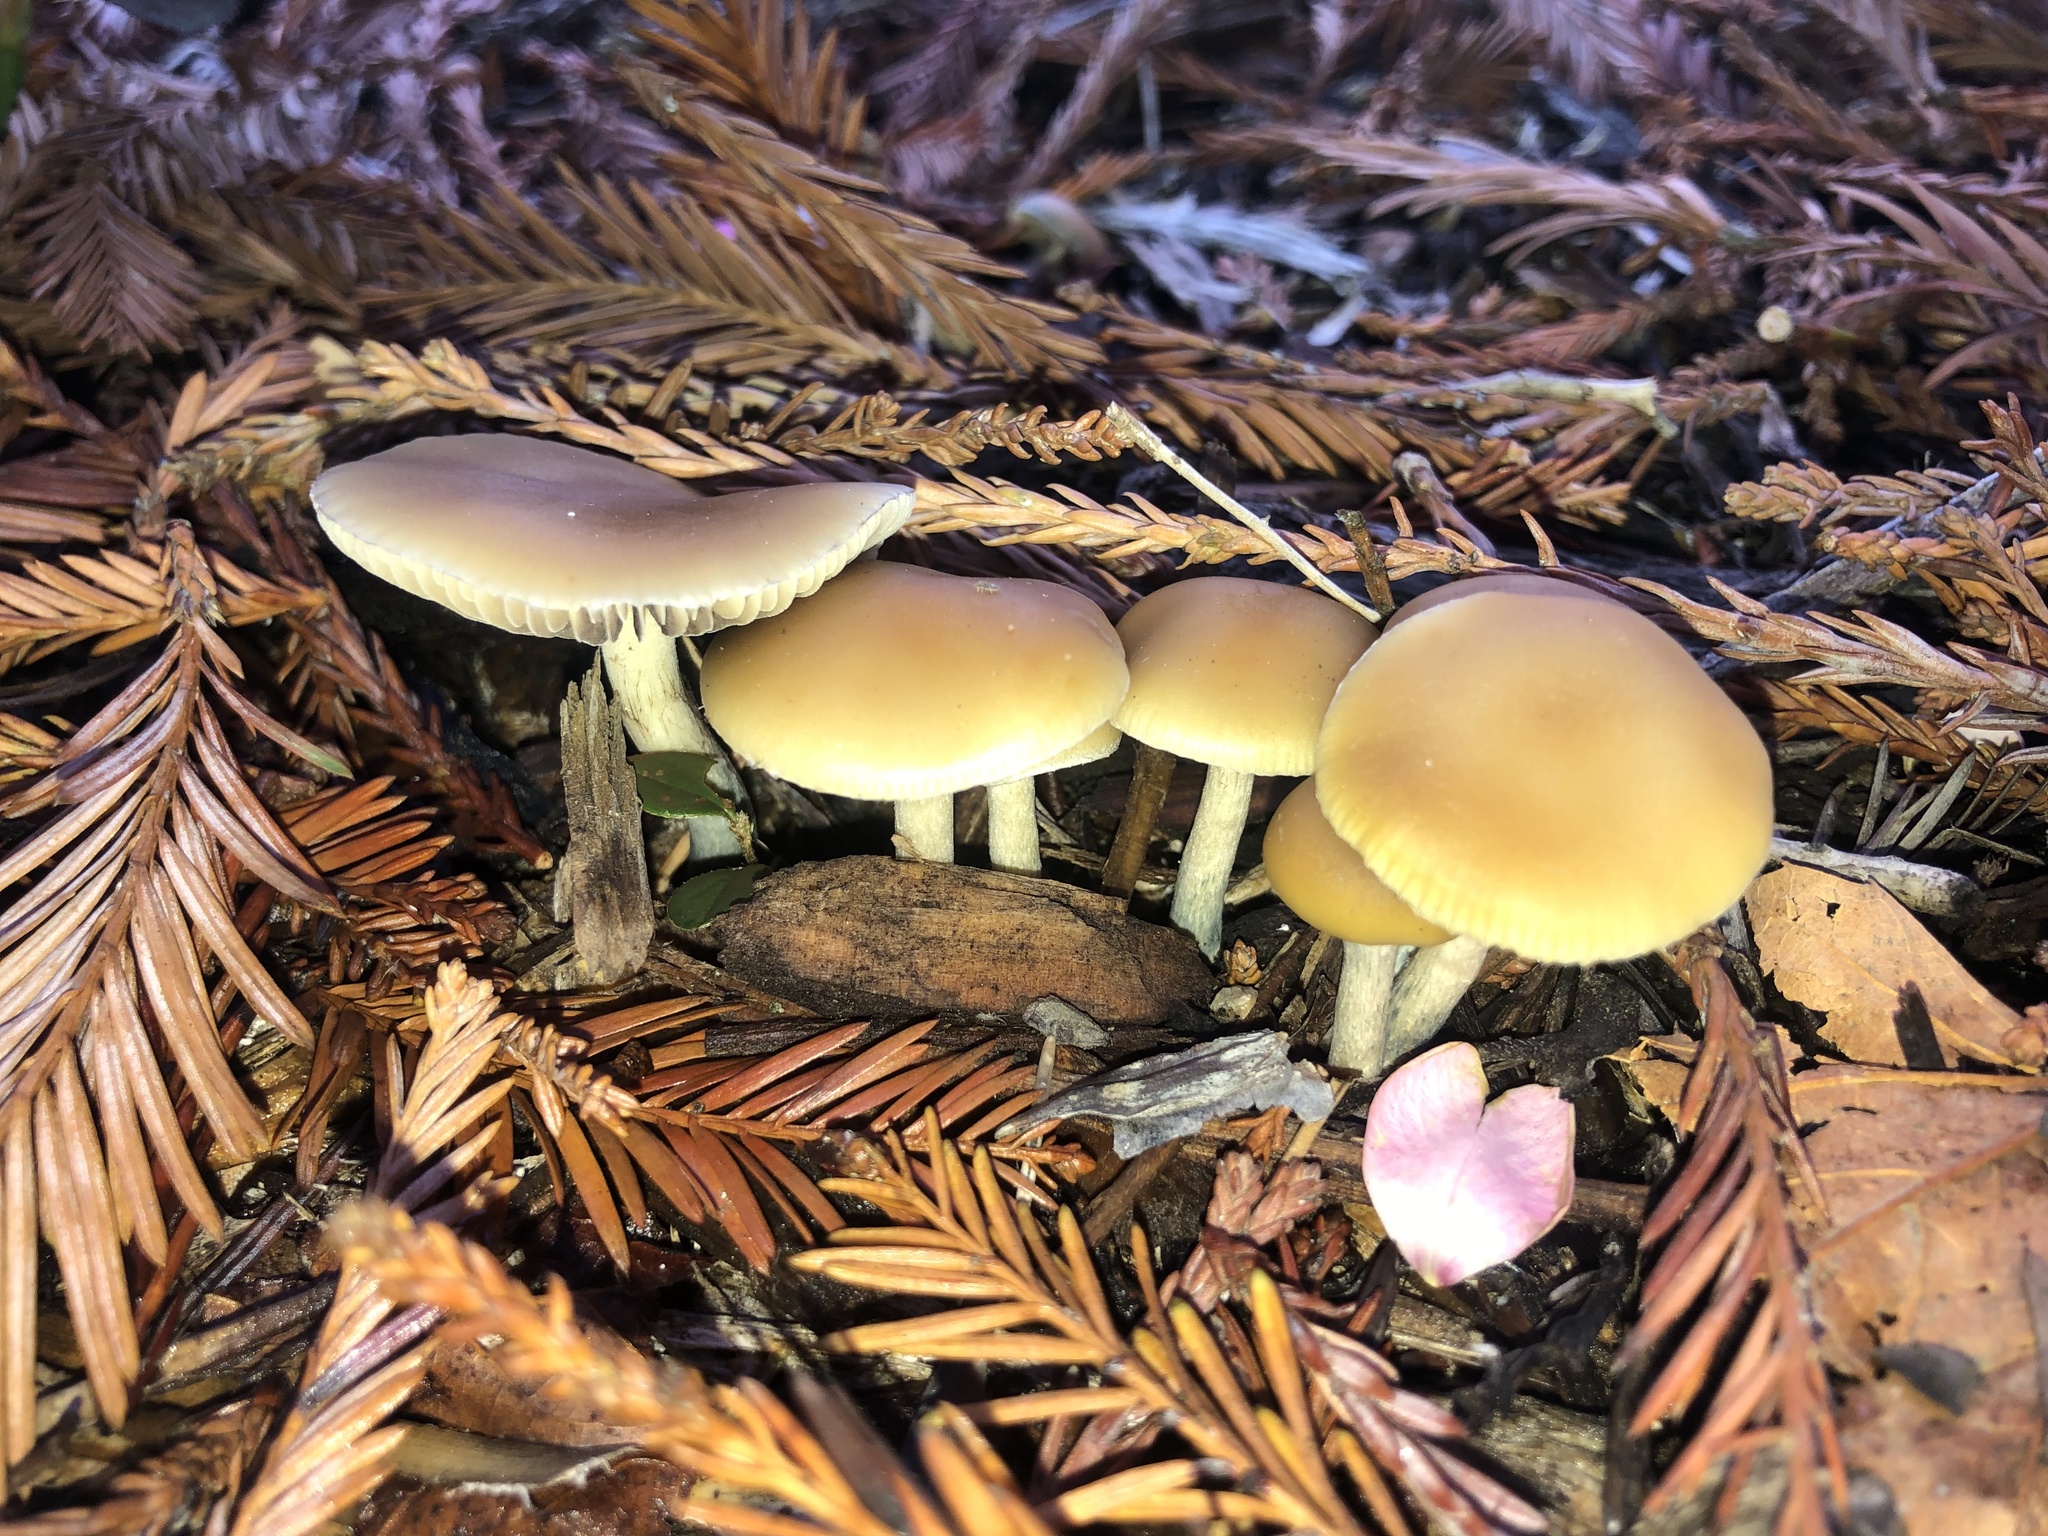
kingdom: Fungi
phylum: Basidiomycota
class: Agaricomycetes
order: Agaricales
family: Hymenogastraceae
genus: Psilocybe
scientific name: Psilocybe allenii
